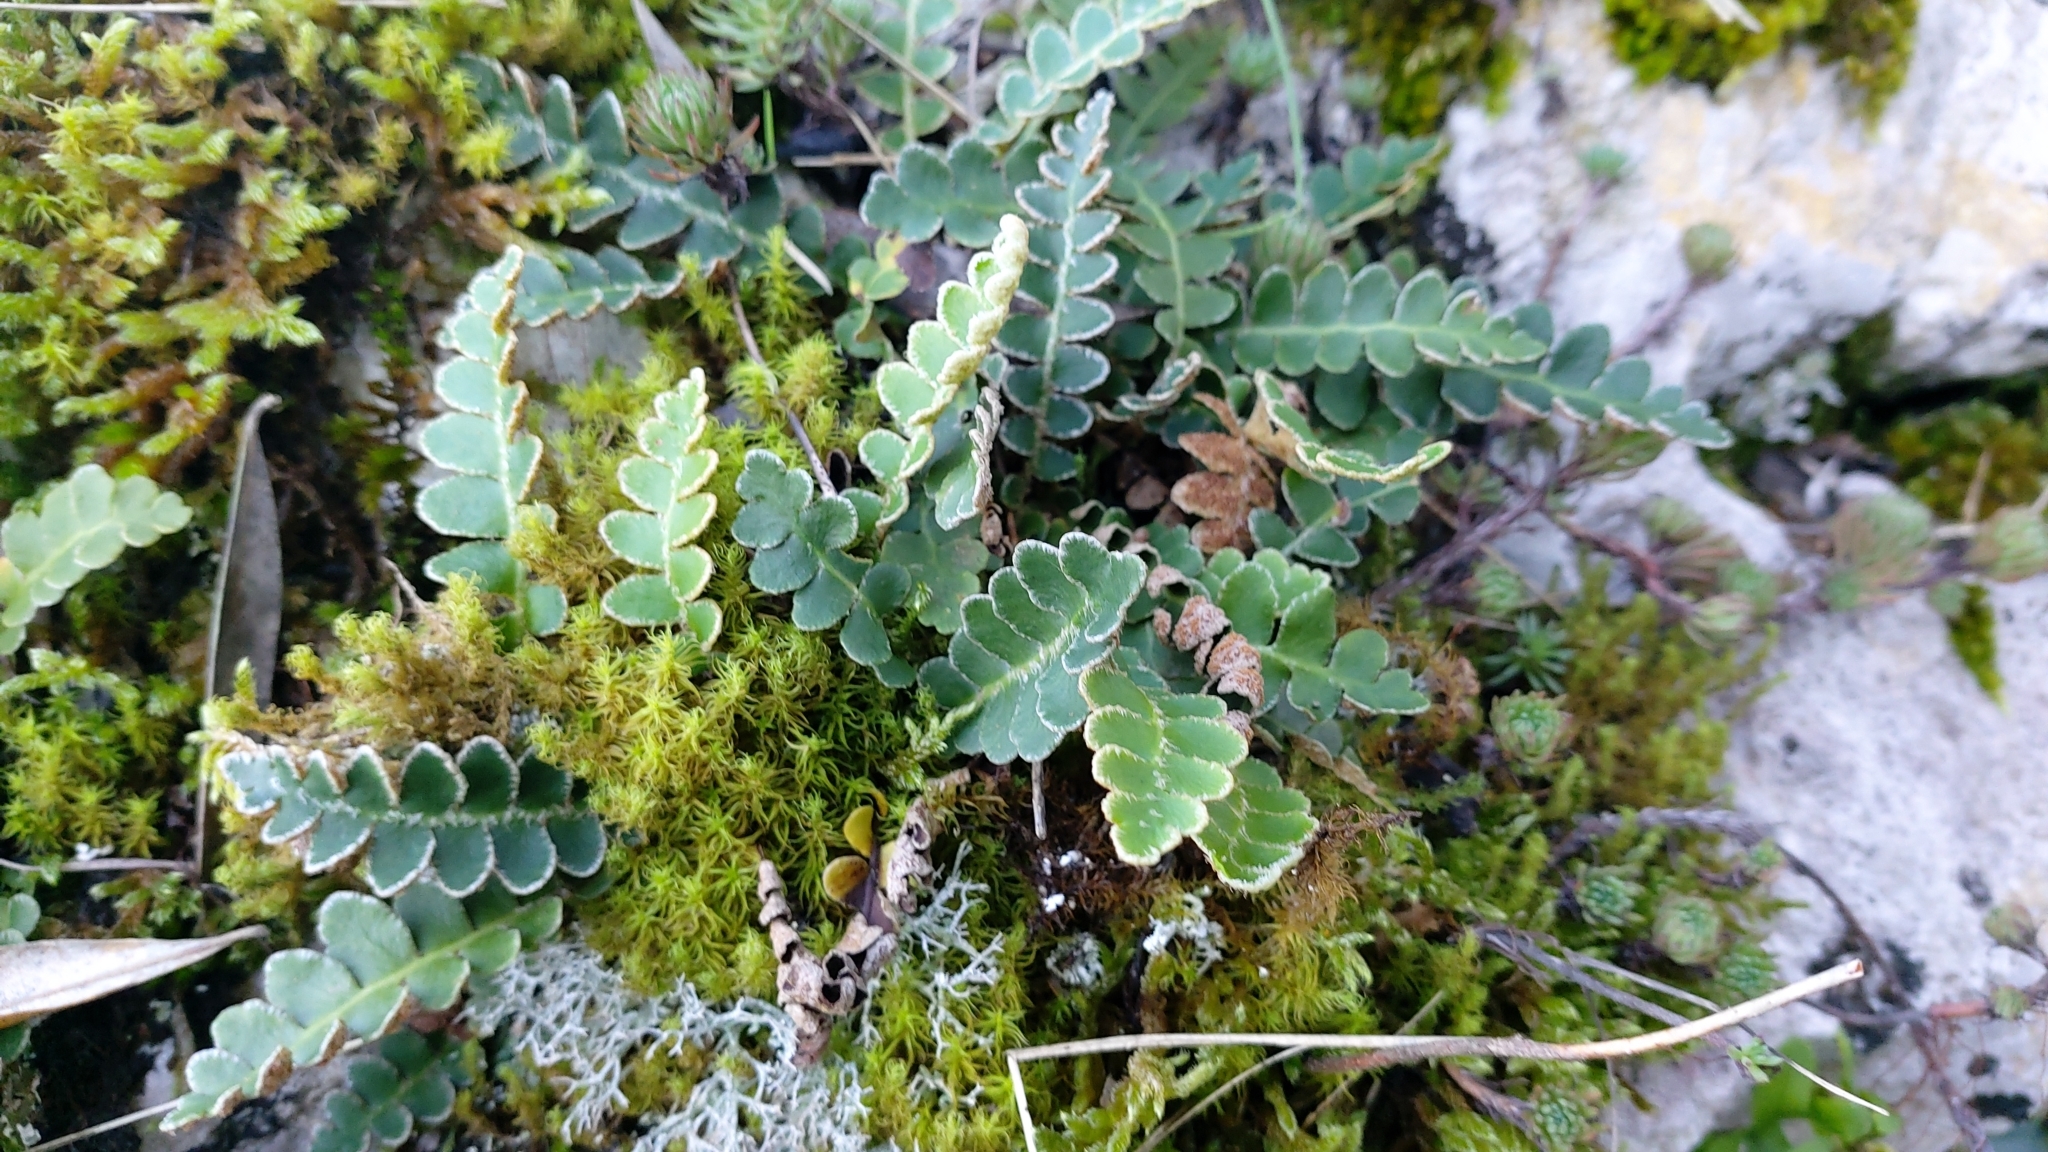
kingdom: Plantae
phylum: Tracheophyta
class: Polypodiopsida
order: Polypodiales
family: Aspleniaceae
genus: Asplenium
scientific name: Asplenium ceterach
